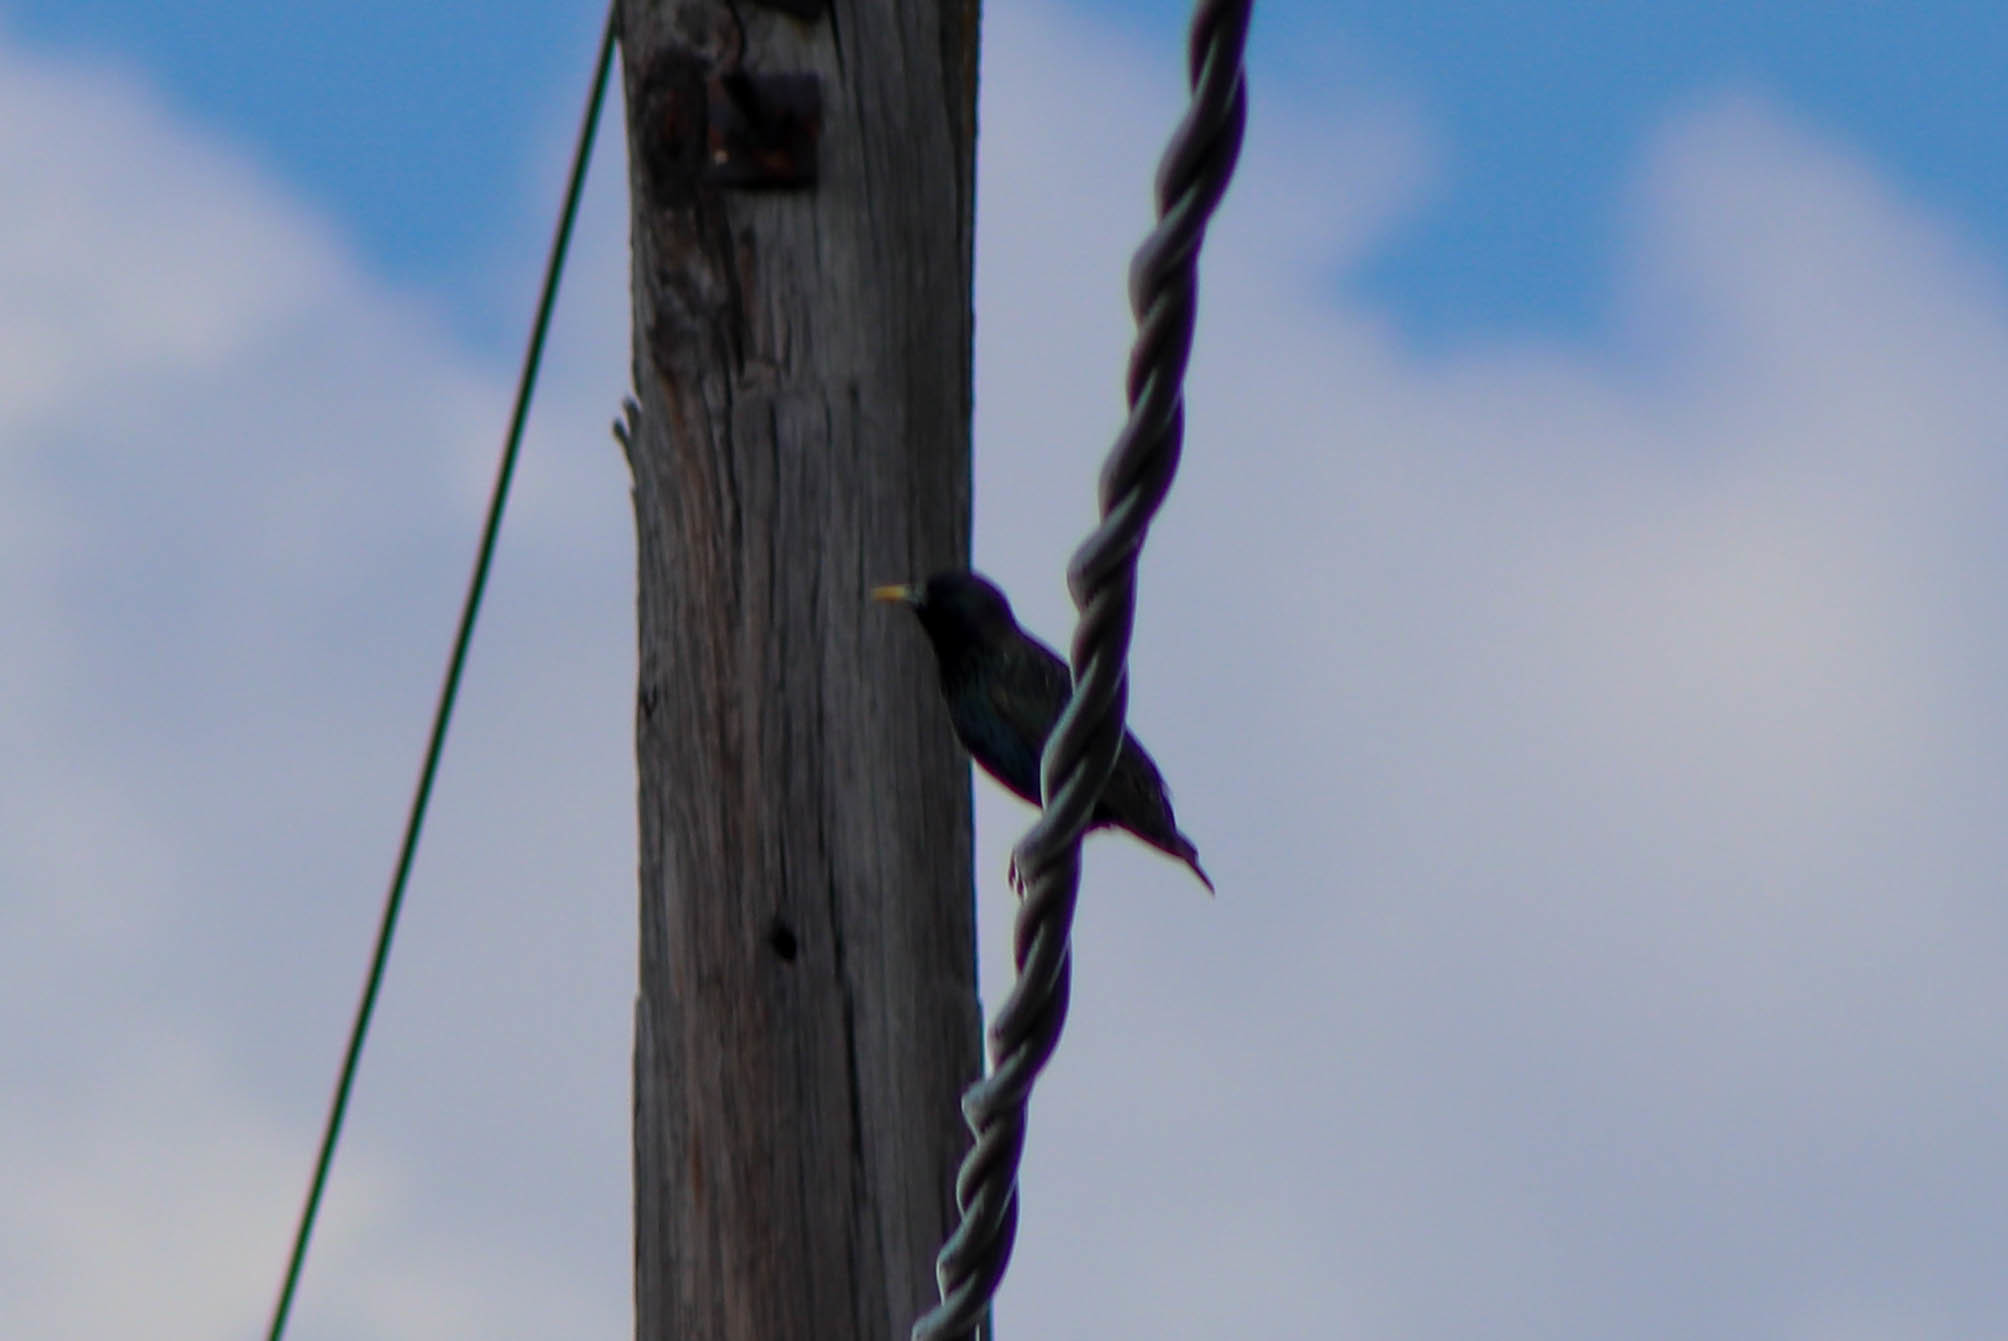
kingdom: Animalia
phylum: Chordata
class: Aves
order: Passeriformes
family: Sturnidae
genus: Sturnus
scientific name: Sturnus vulgaris
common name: Common starling
